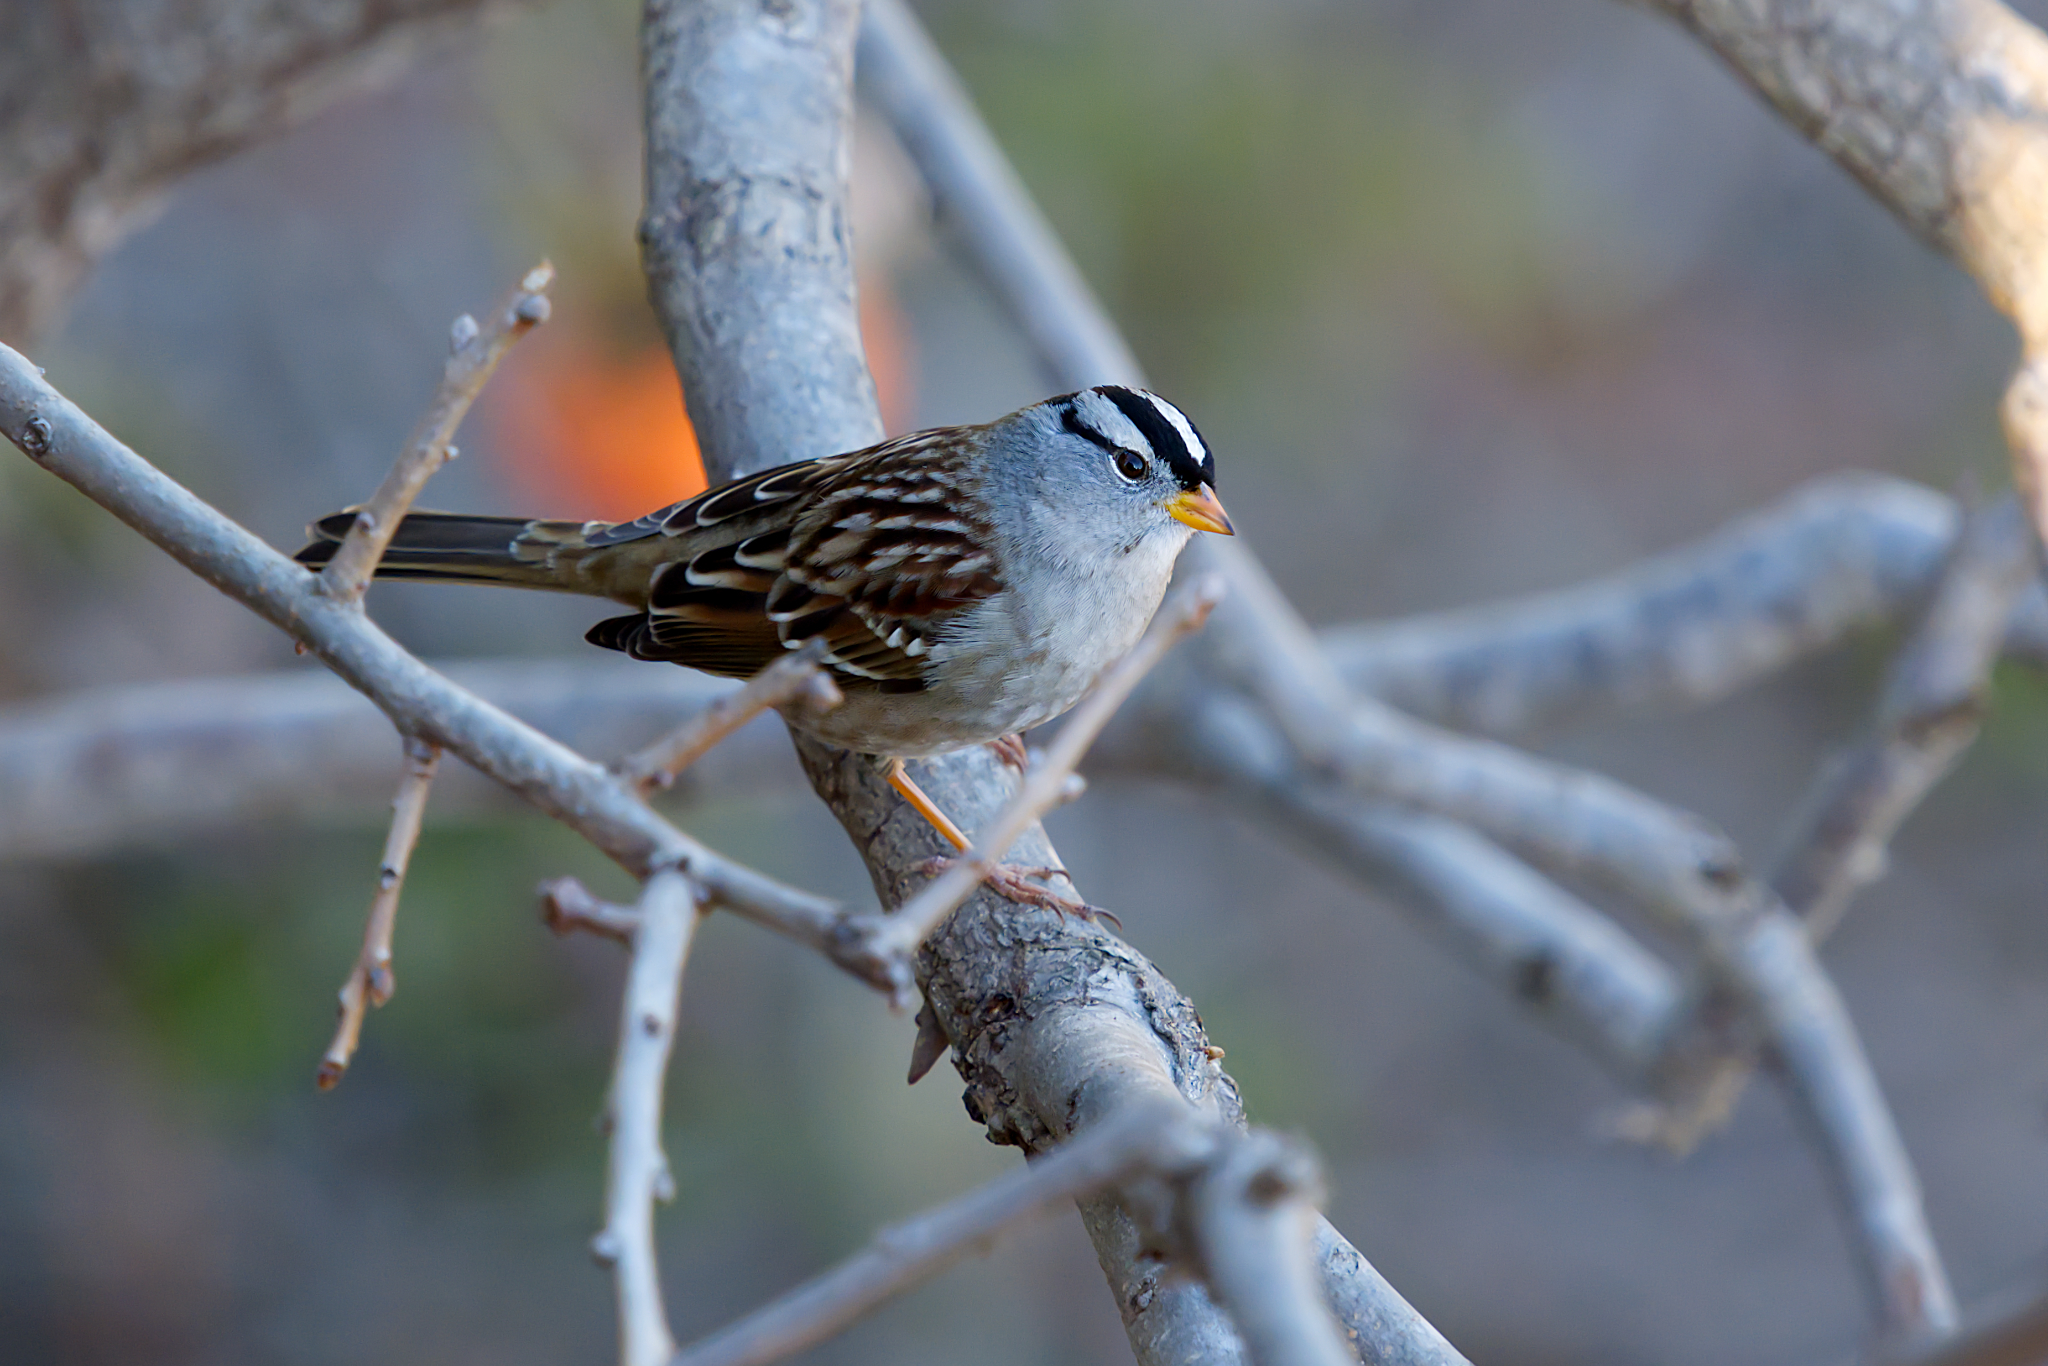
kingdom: Animalia
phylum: Chordata
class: Aves
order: Passeriformes
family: Passerellidae
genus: Zonotrichia
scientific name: Zonotrichia leucophrys
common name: White-crowned sparrow
